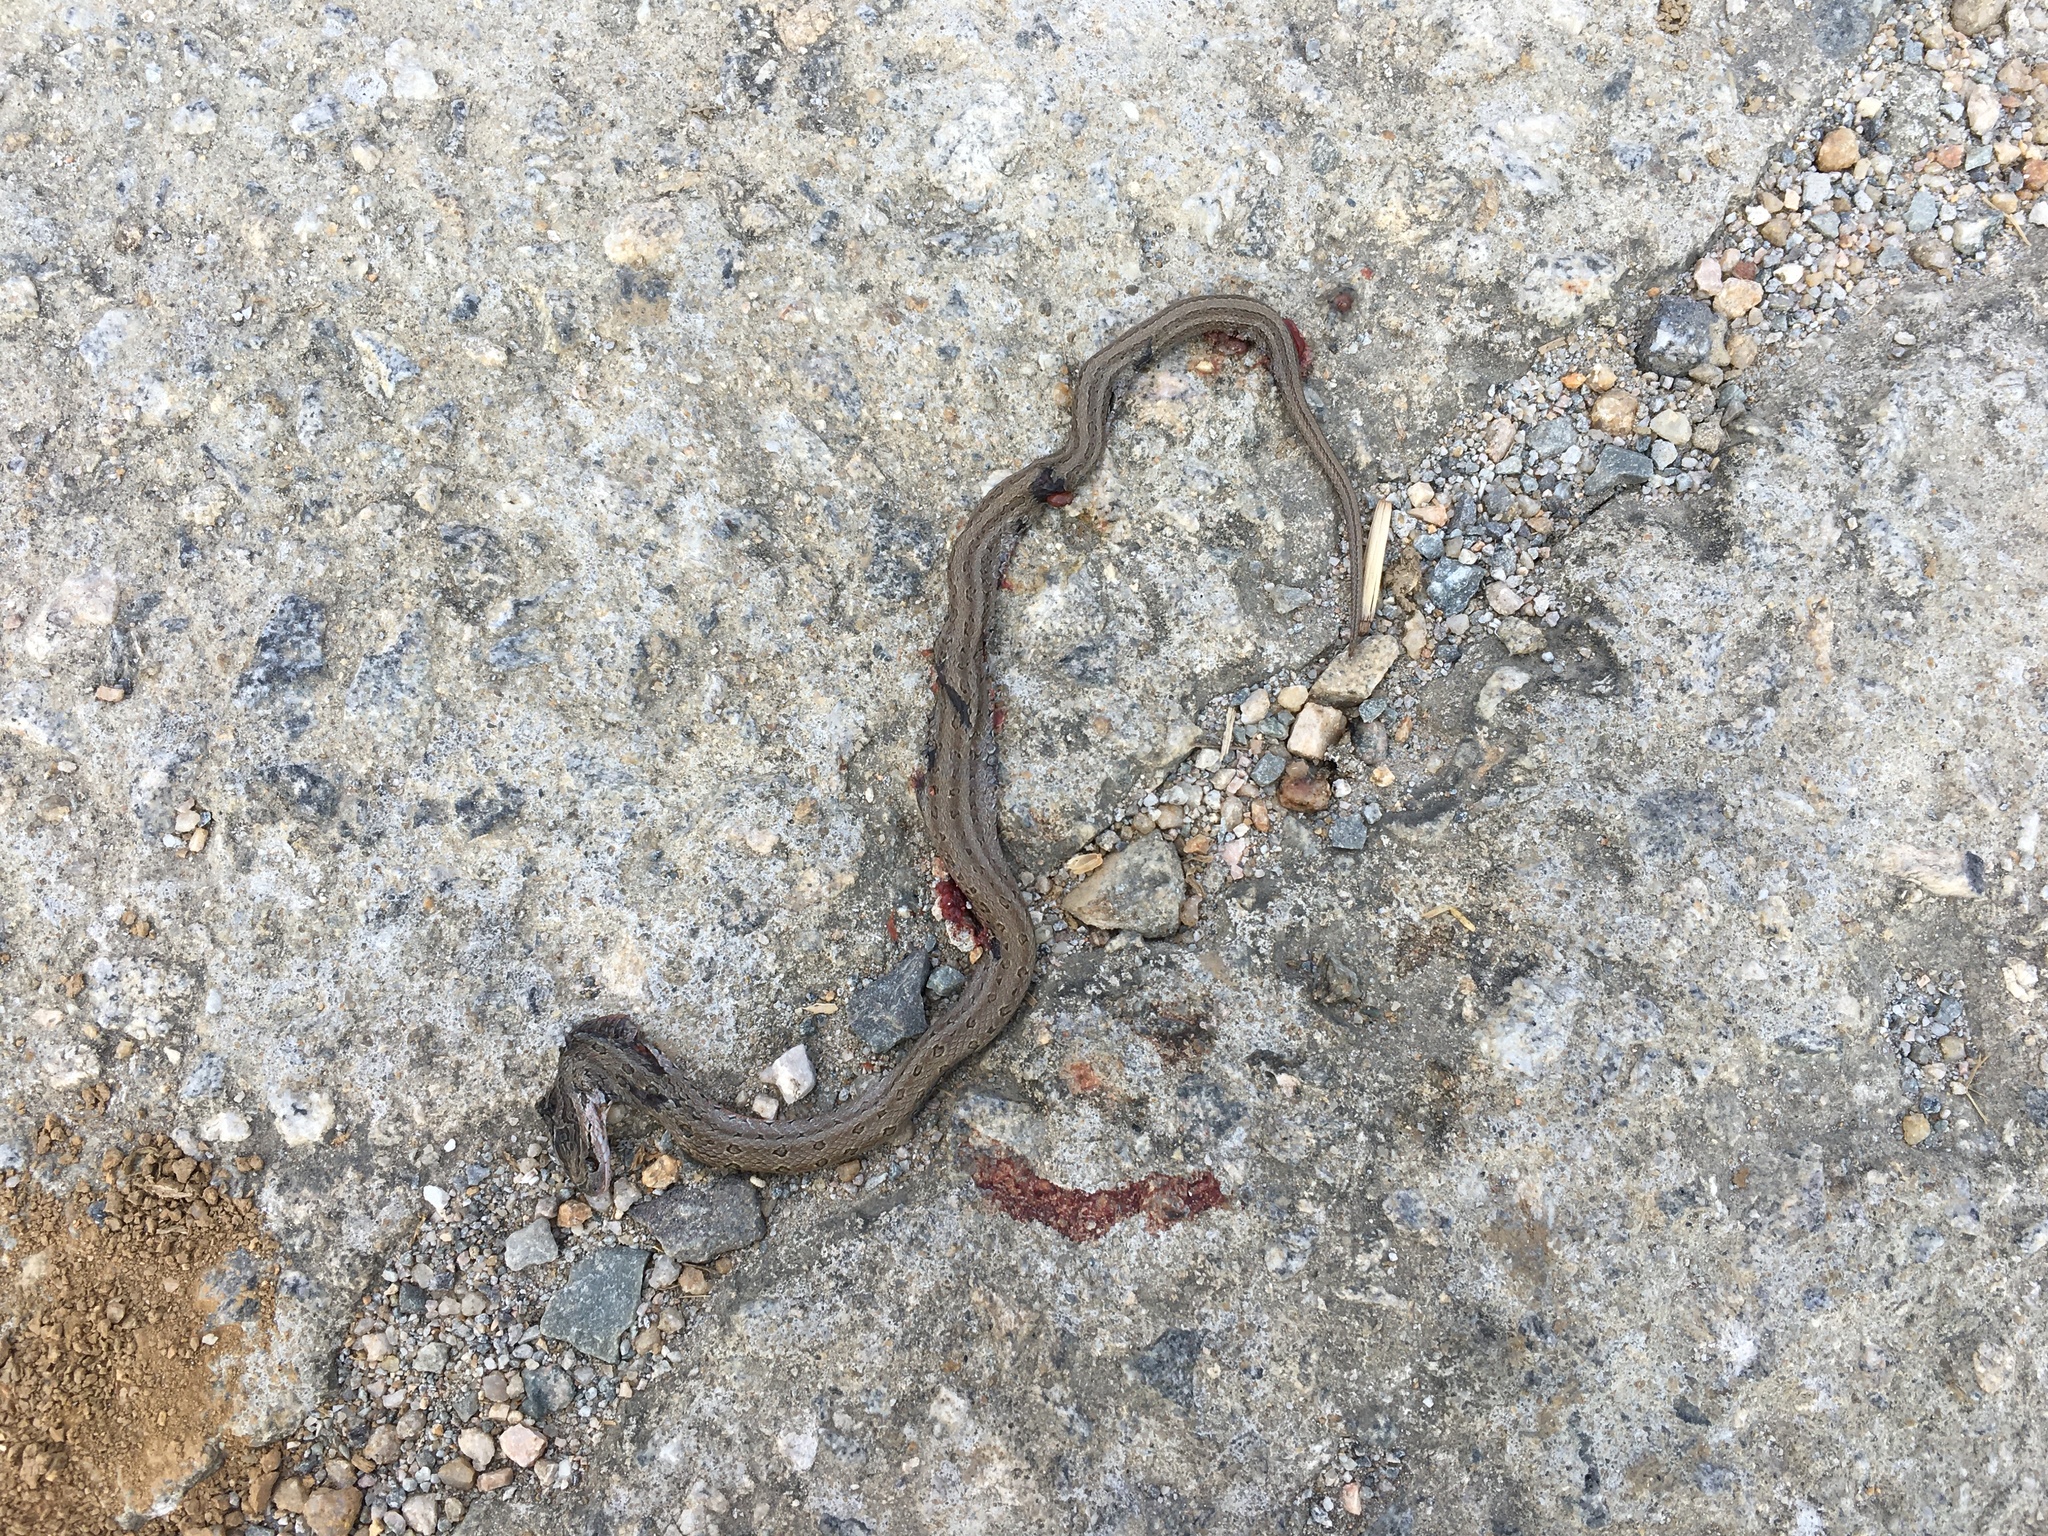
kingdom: Animalia
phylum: Chordata
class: Squamata
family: Colubridae
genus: Oocatochus
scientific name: Oocatochus rufodorsatus
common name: Frog-eating rat snake
